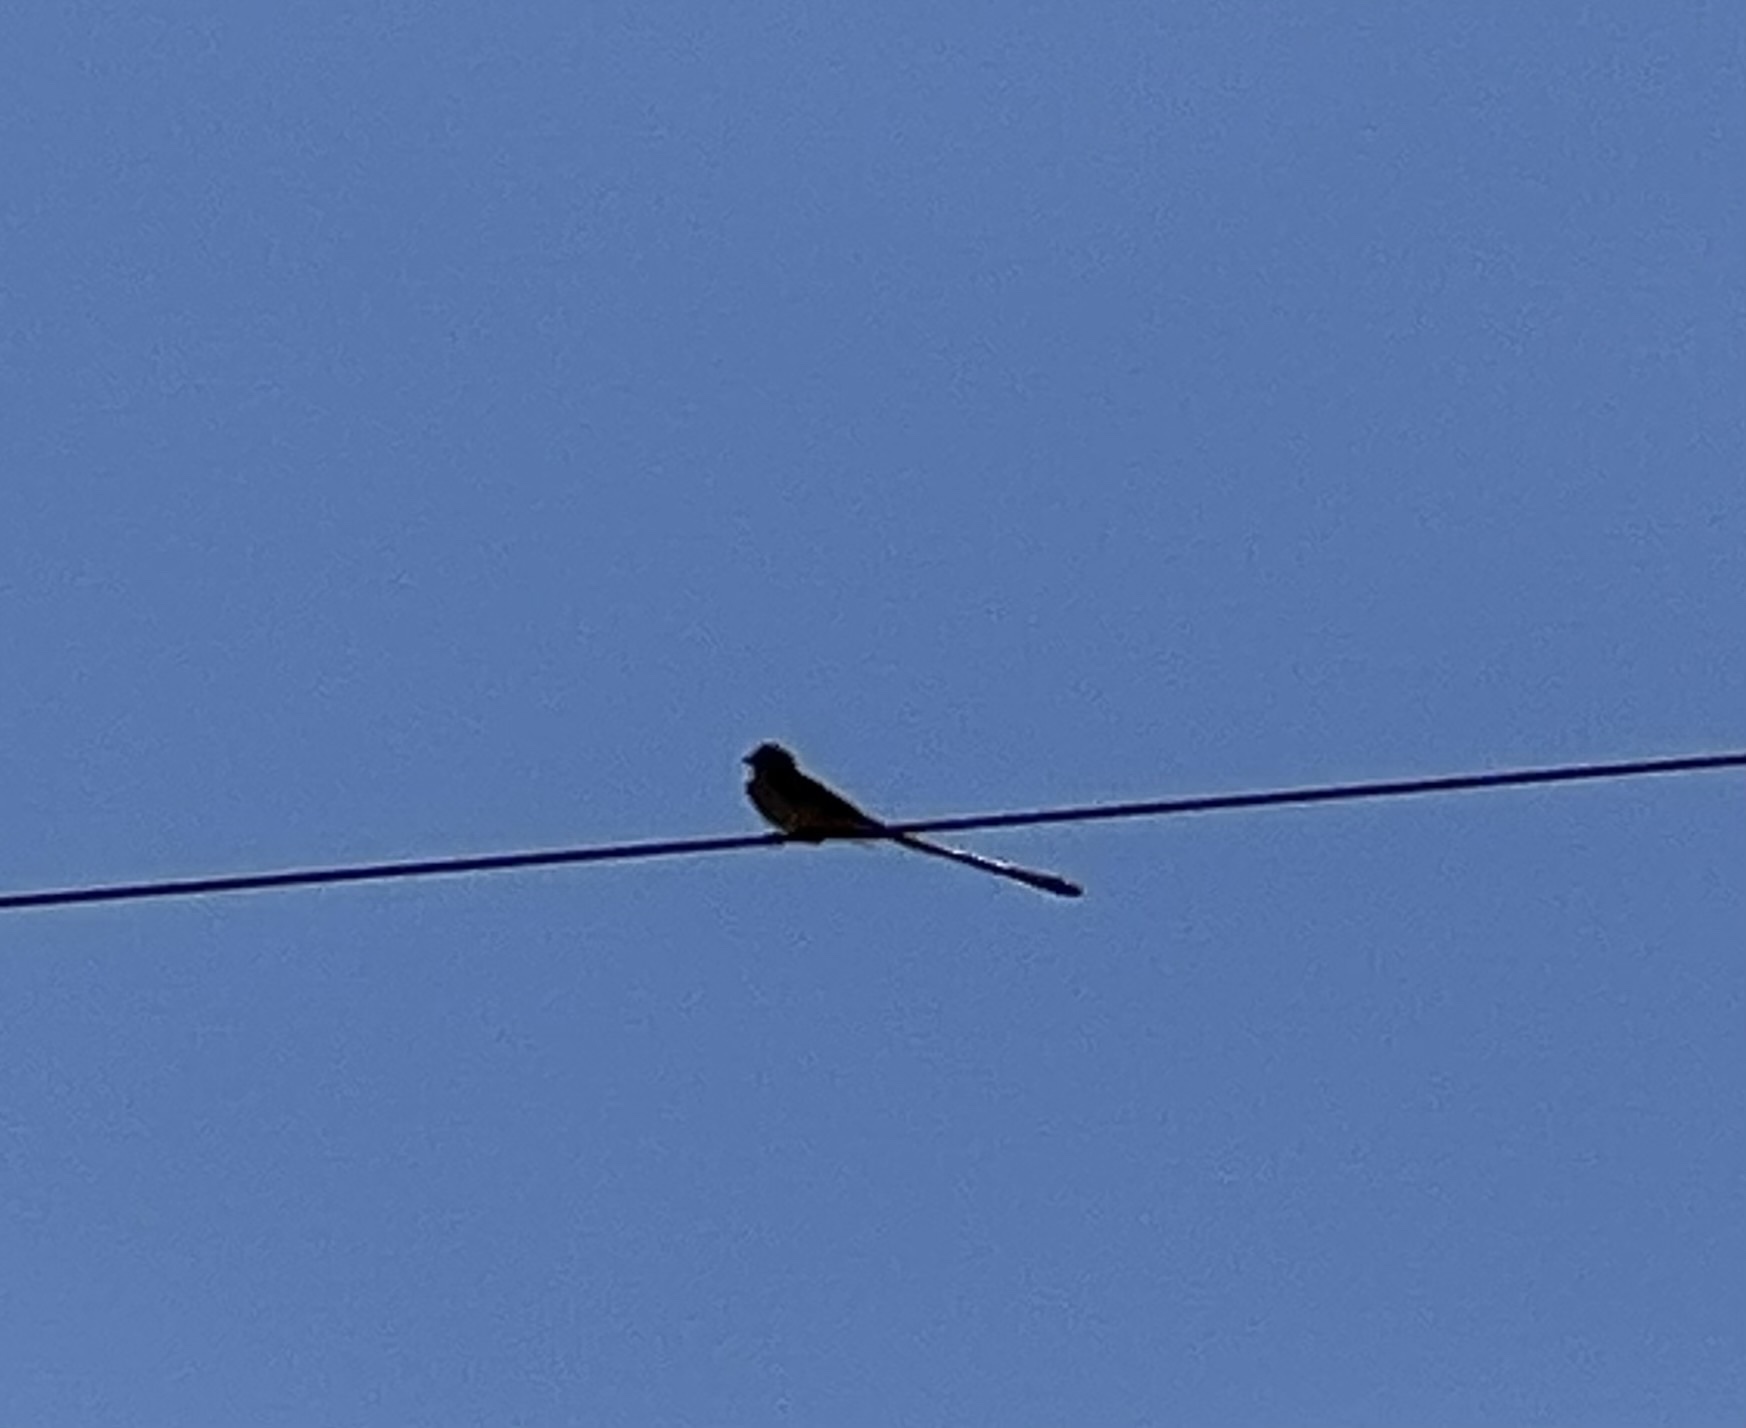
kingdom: Animalia
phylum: Chordata
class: Aves
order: Passeriformes
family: Tyrannidae
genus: Tyrannus
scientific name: Tyrannus forficatus
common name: Scissor-tailed flycatcher
